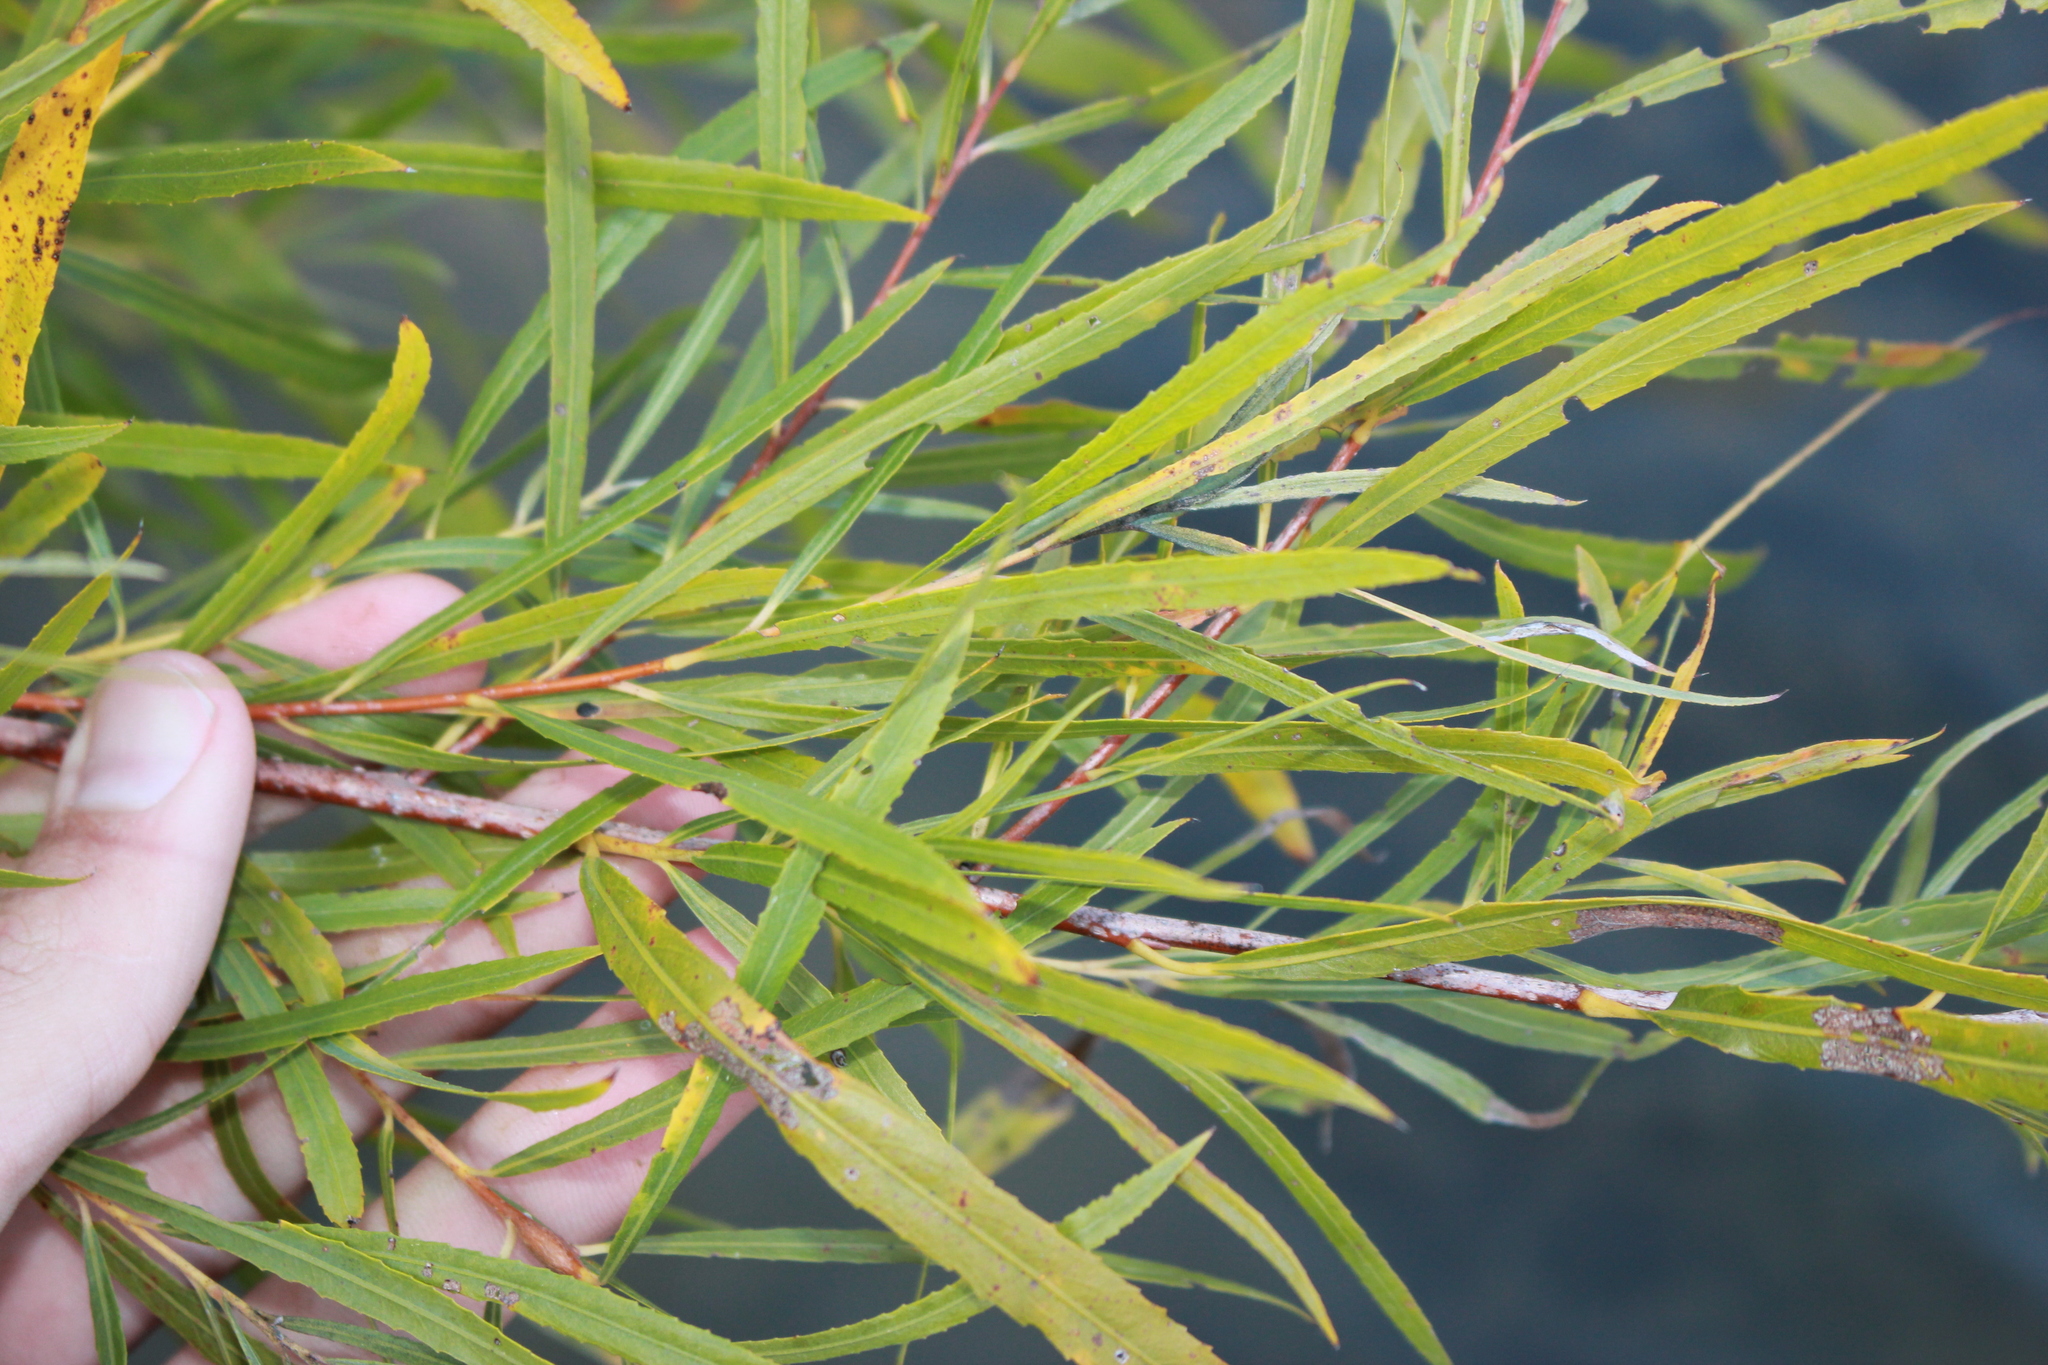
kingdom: Plantae
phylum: Tracheophyta
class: Magnoliopsida
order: Malpighiales
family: Salicaceae
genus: Salix
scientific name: Salix interior
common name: Sandbar willow
